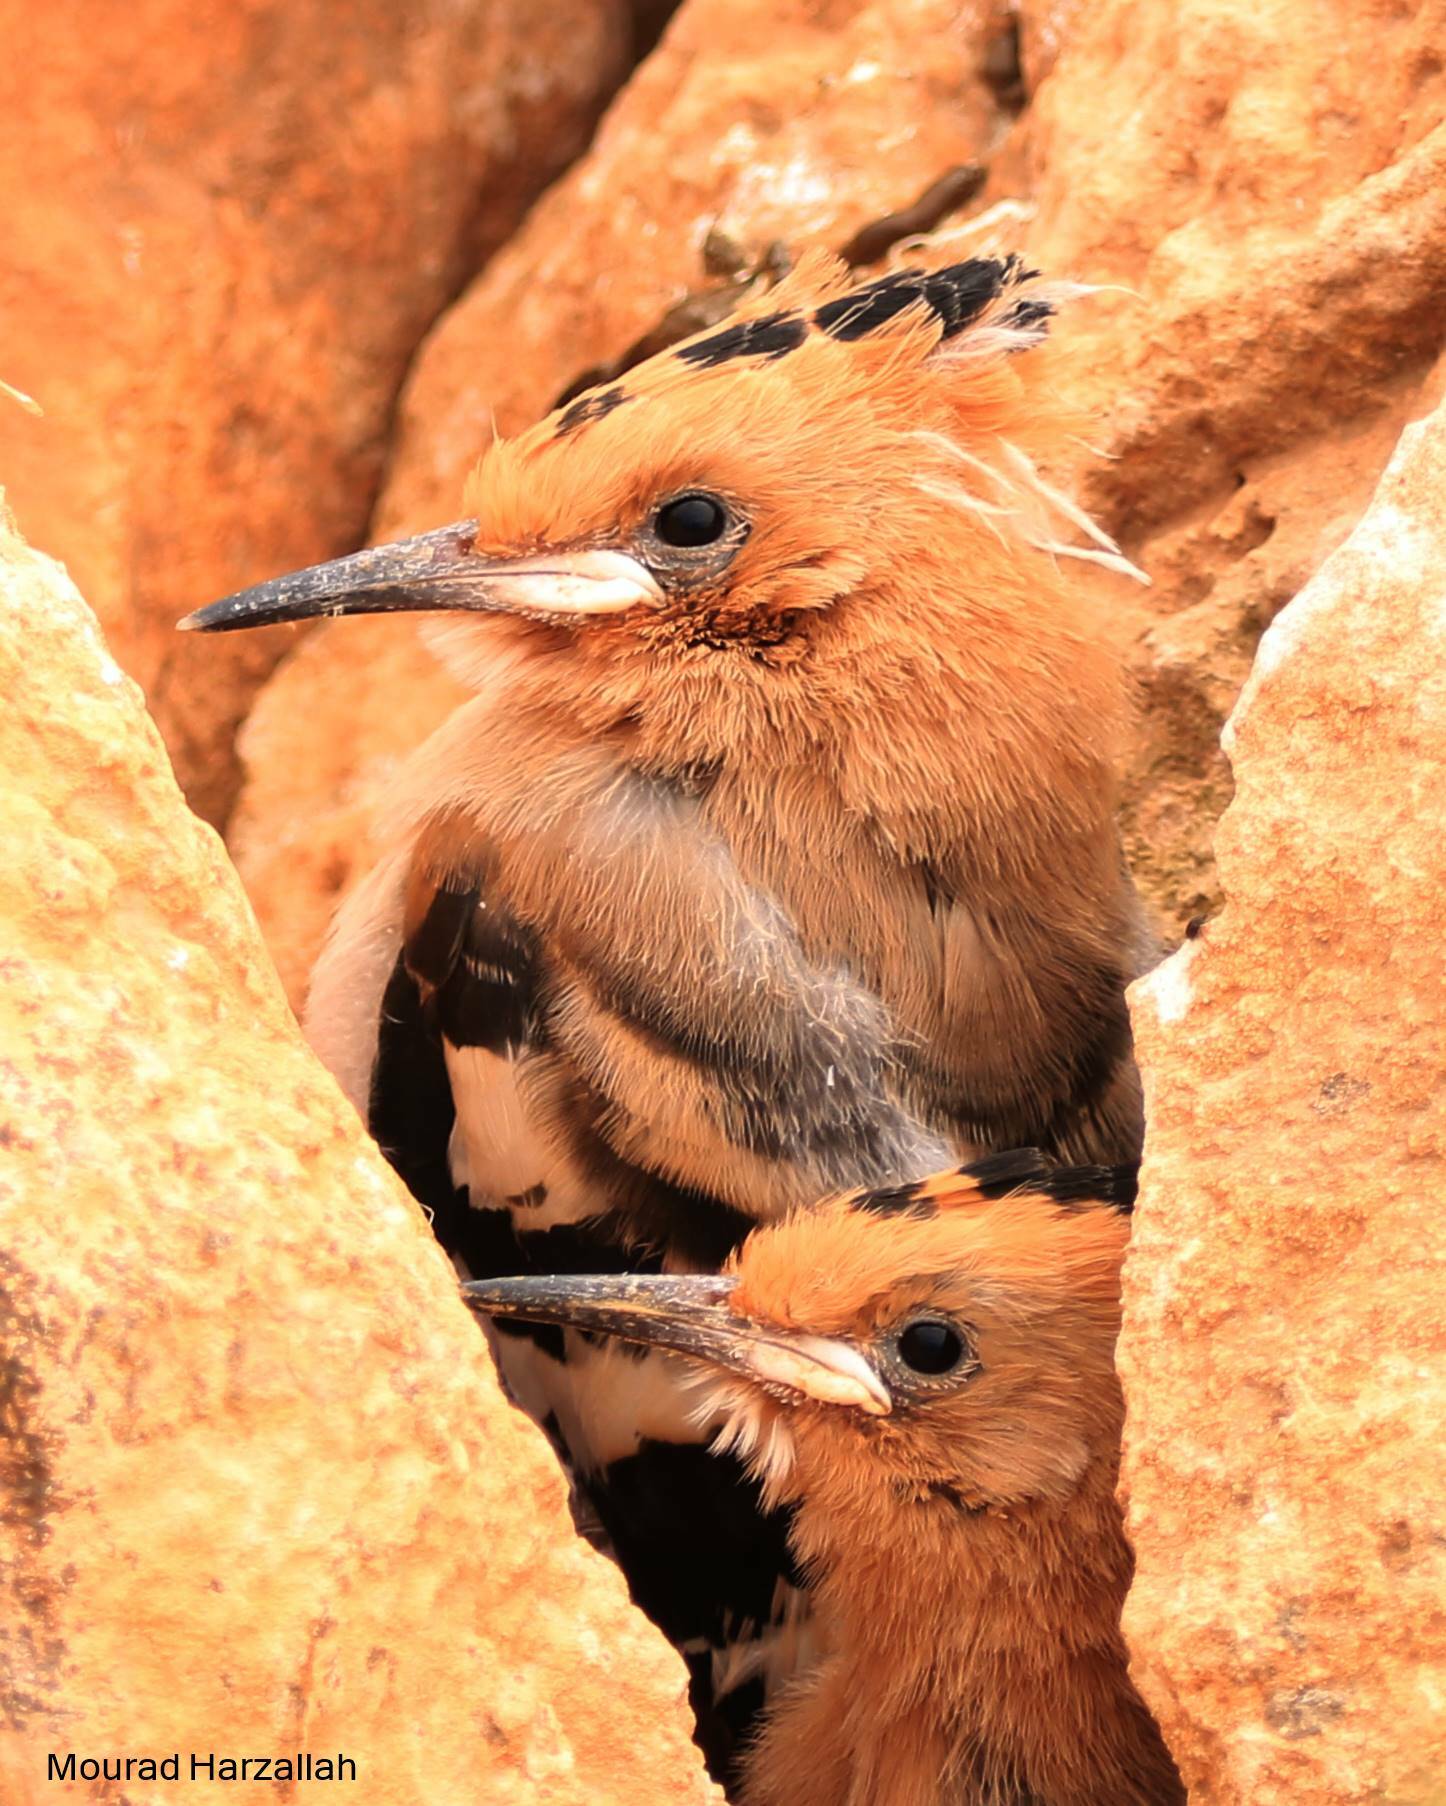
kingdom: Animalia
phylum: Chordata
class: Aves
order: Bucerotiformes
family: Upupidae
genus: Upupa
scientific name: Upupa epops
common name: Eurasian hoopoe
